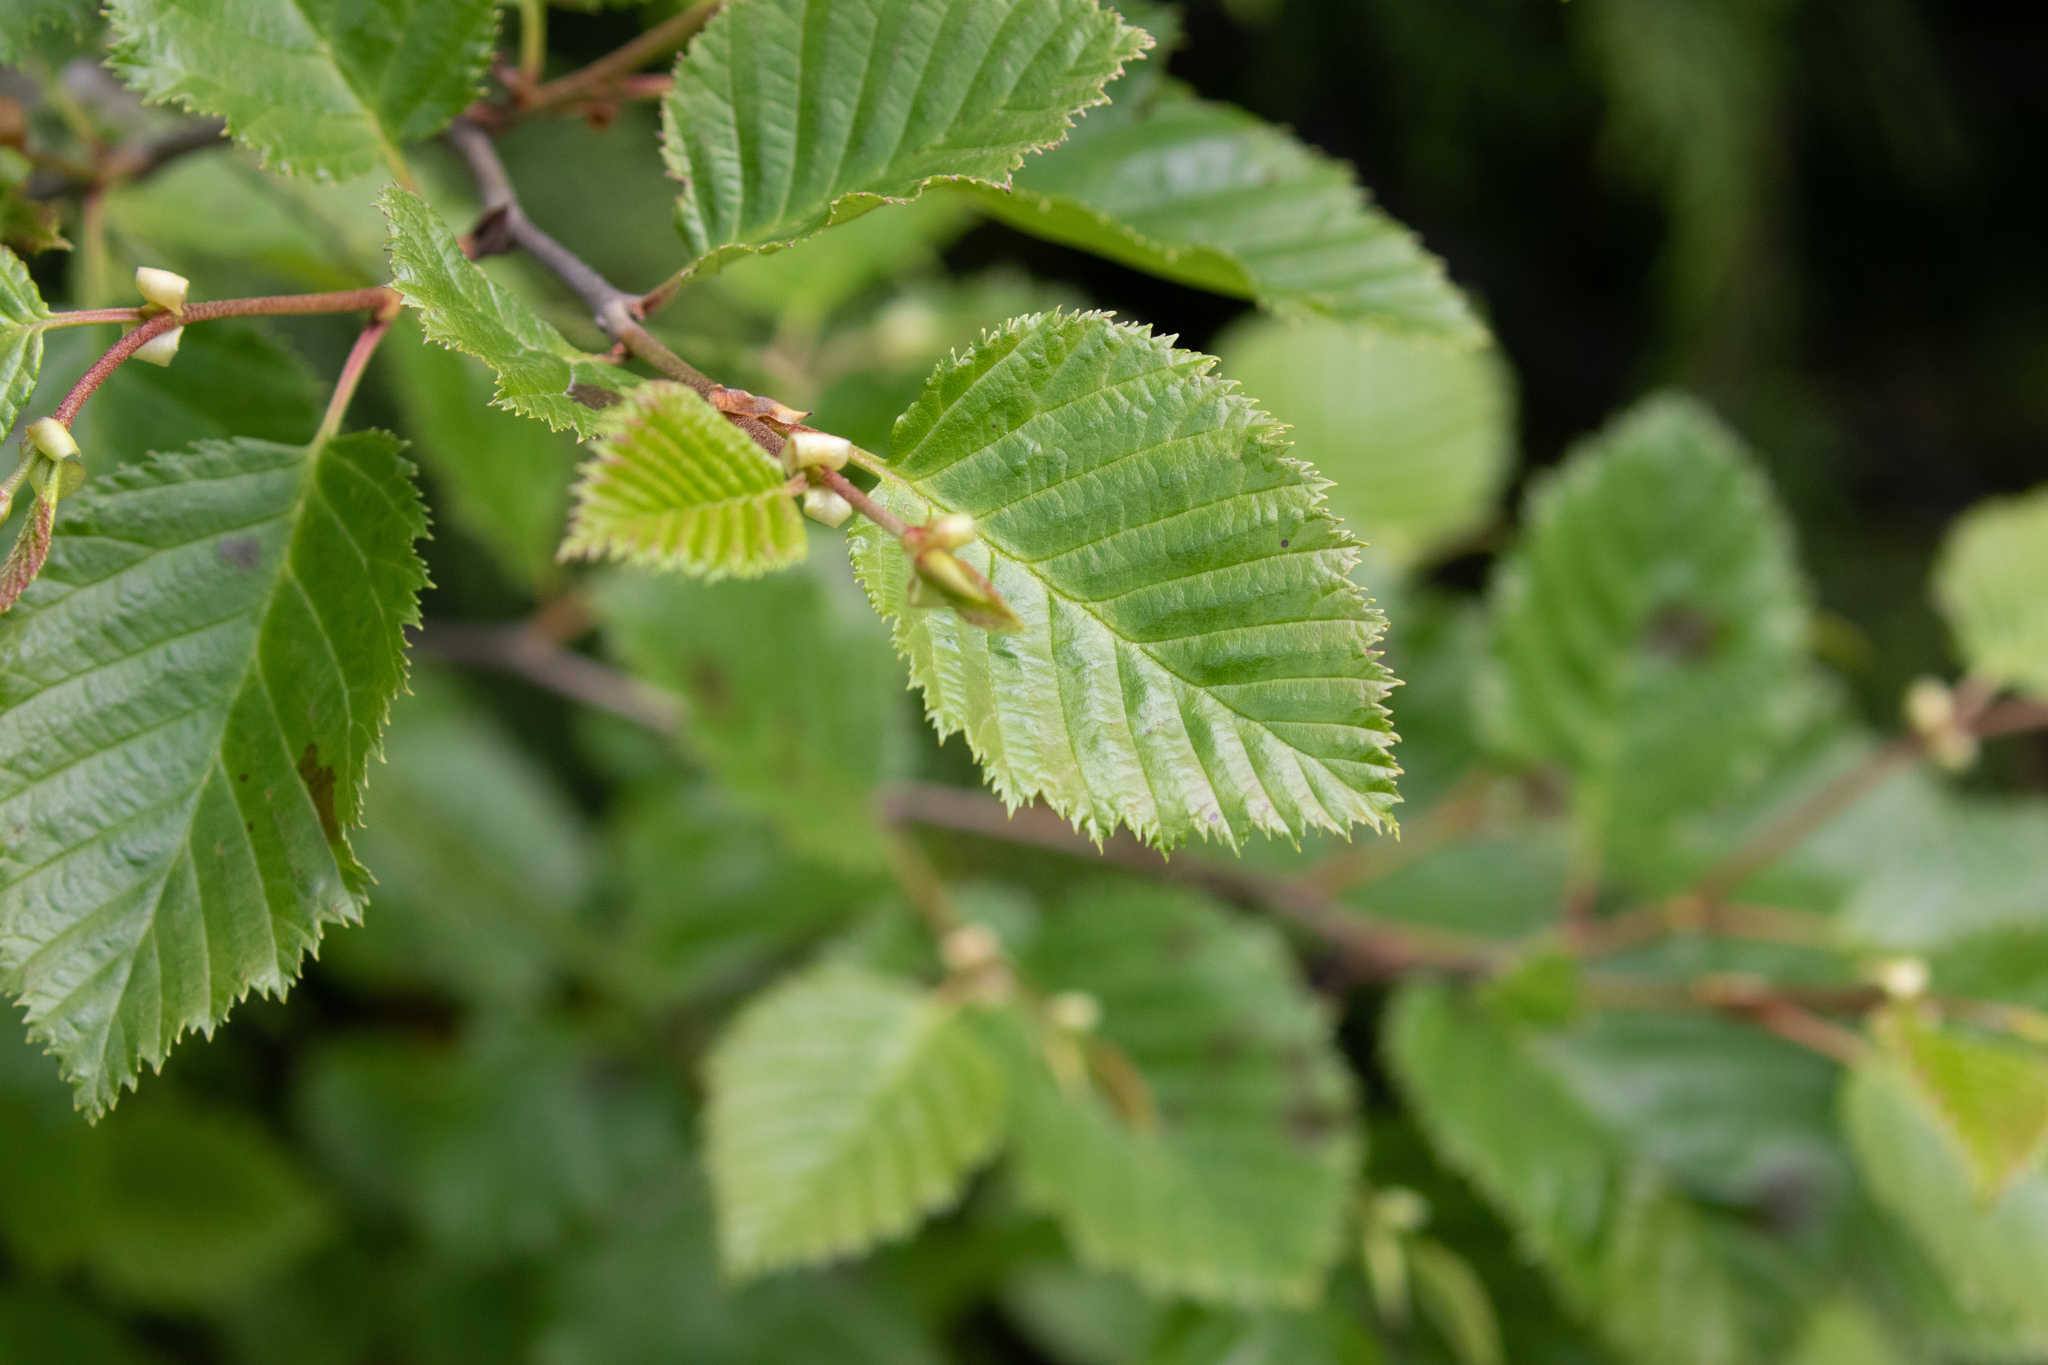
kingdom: Plantae
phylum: Tracheophyta
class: Magnoliopsida
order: Fagales
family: Betulaceae
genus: Alnus
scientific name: Alnus alnobetula
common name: Green alder
